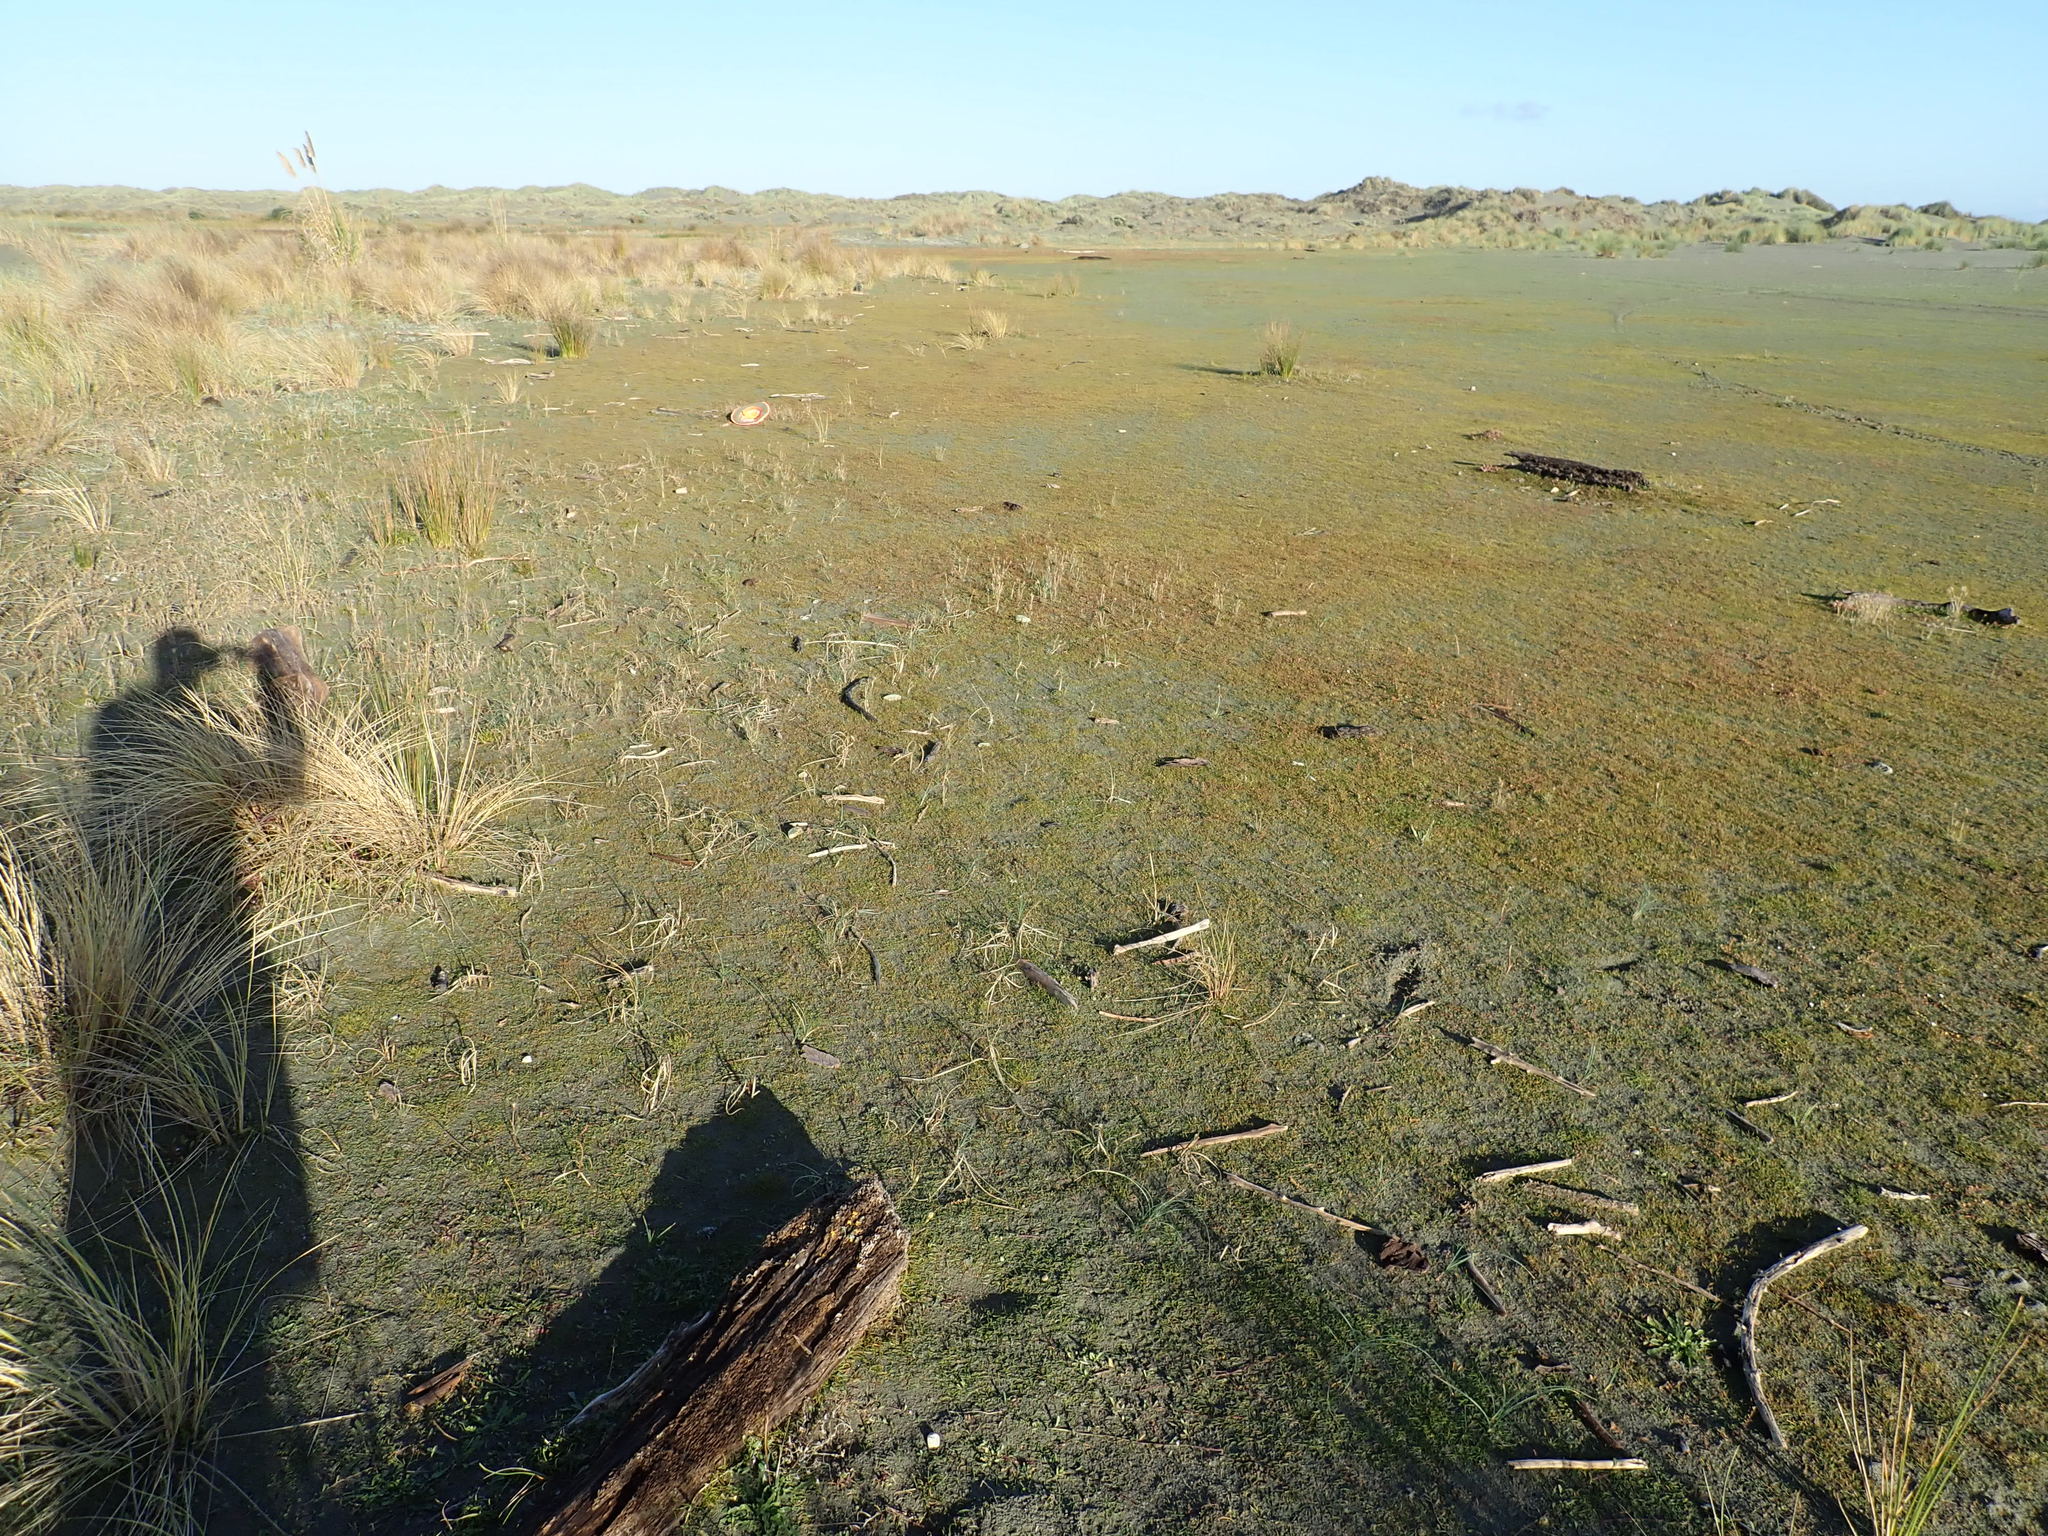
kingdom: Plantae
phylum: Tracheophyta
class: Liliopsida
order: Poales
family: Juncaceae
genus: Juncus
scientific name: Juncus caespiticius
